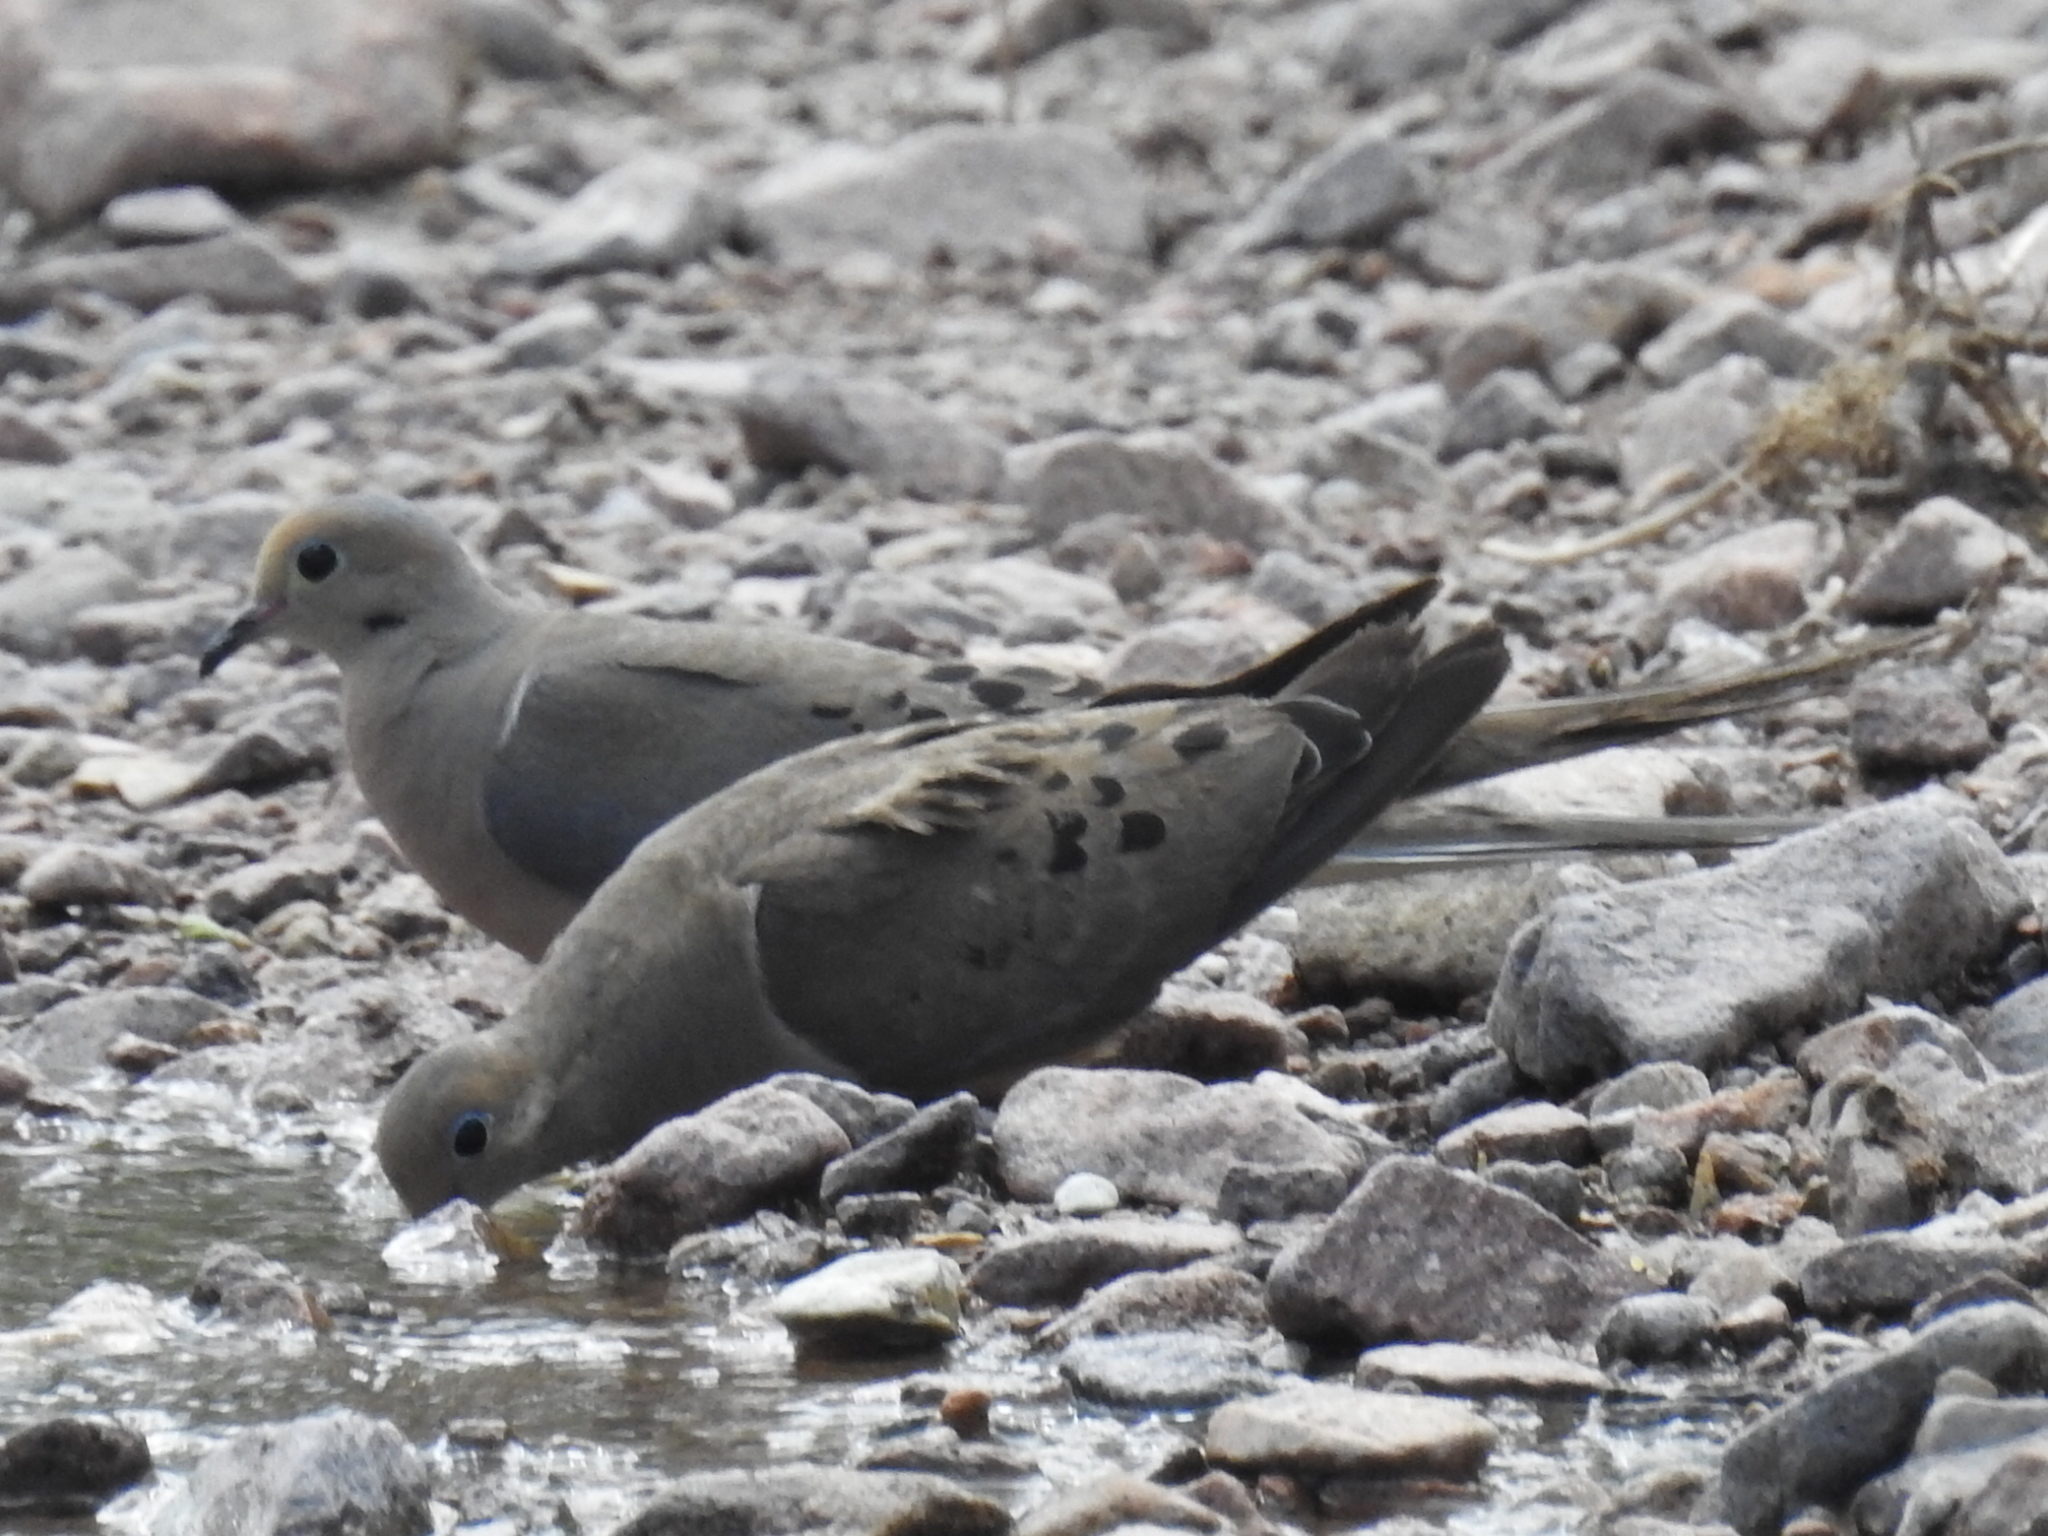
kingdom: Animalia
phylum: Chordata
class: Aves
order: Columbiformes
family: Columbidae
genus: Zenaida
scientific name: Zenaida macroura
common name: Mourning dove
